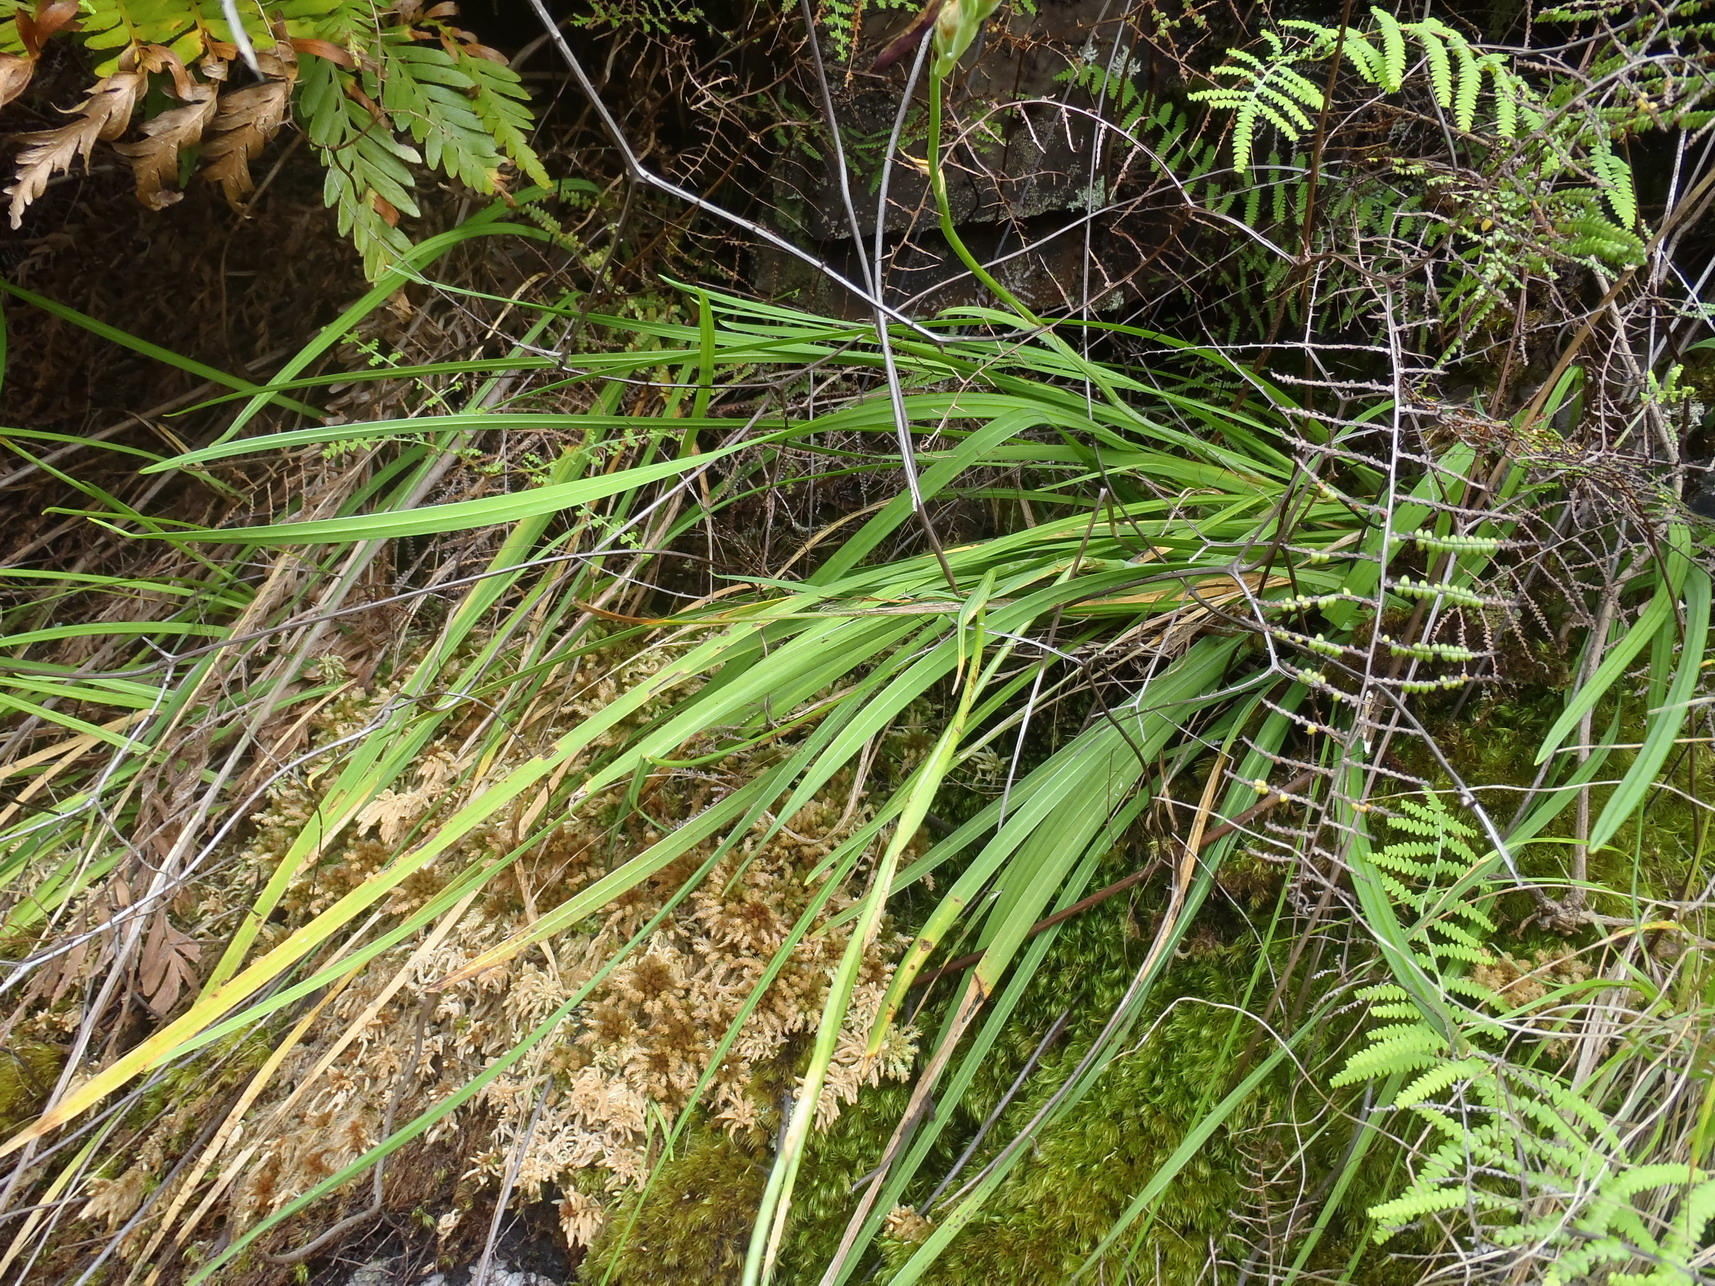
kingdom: Plantae
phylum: Tracheophyta
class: Liliopsida
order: Asparagales
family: Iridaceae
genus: Geissorhiza
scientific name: Geissorhiza outeniquensis
